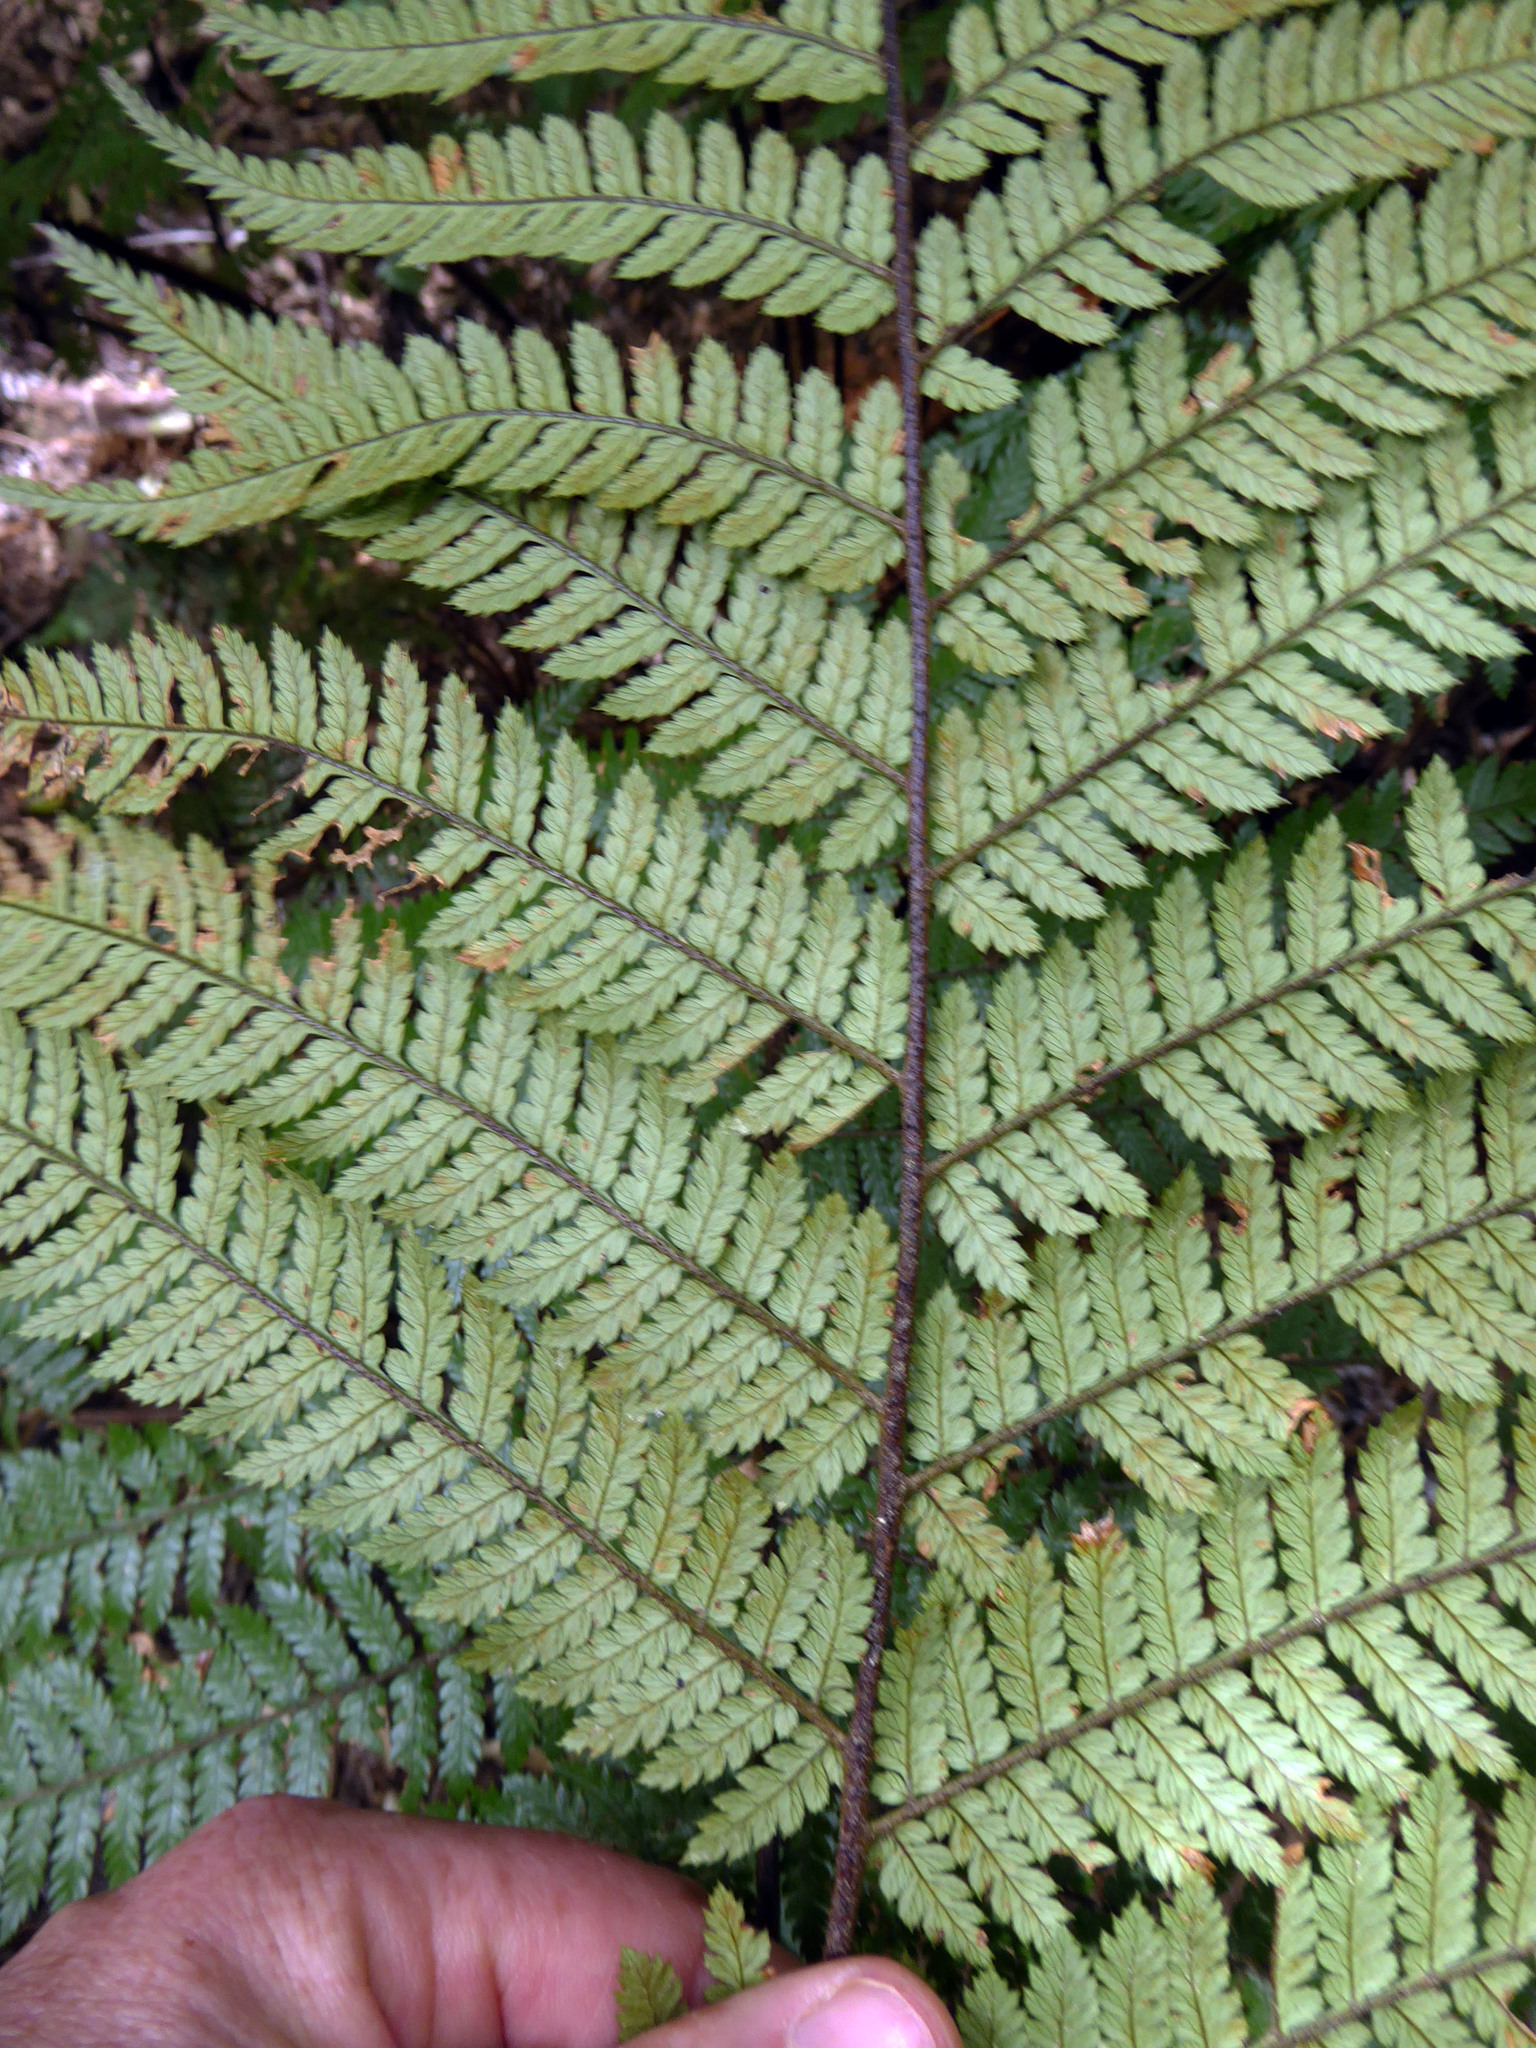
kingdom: Plantae
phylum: Tracheophyta
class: Polypodiopsida
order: Cyatheales
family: Dicksoniaceae
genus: Dicksonia
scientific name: Dicksonia squarrosa
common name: Hard treefern
